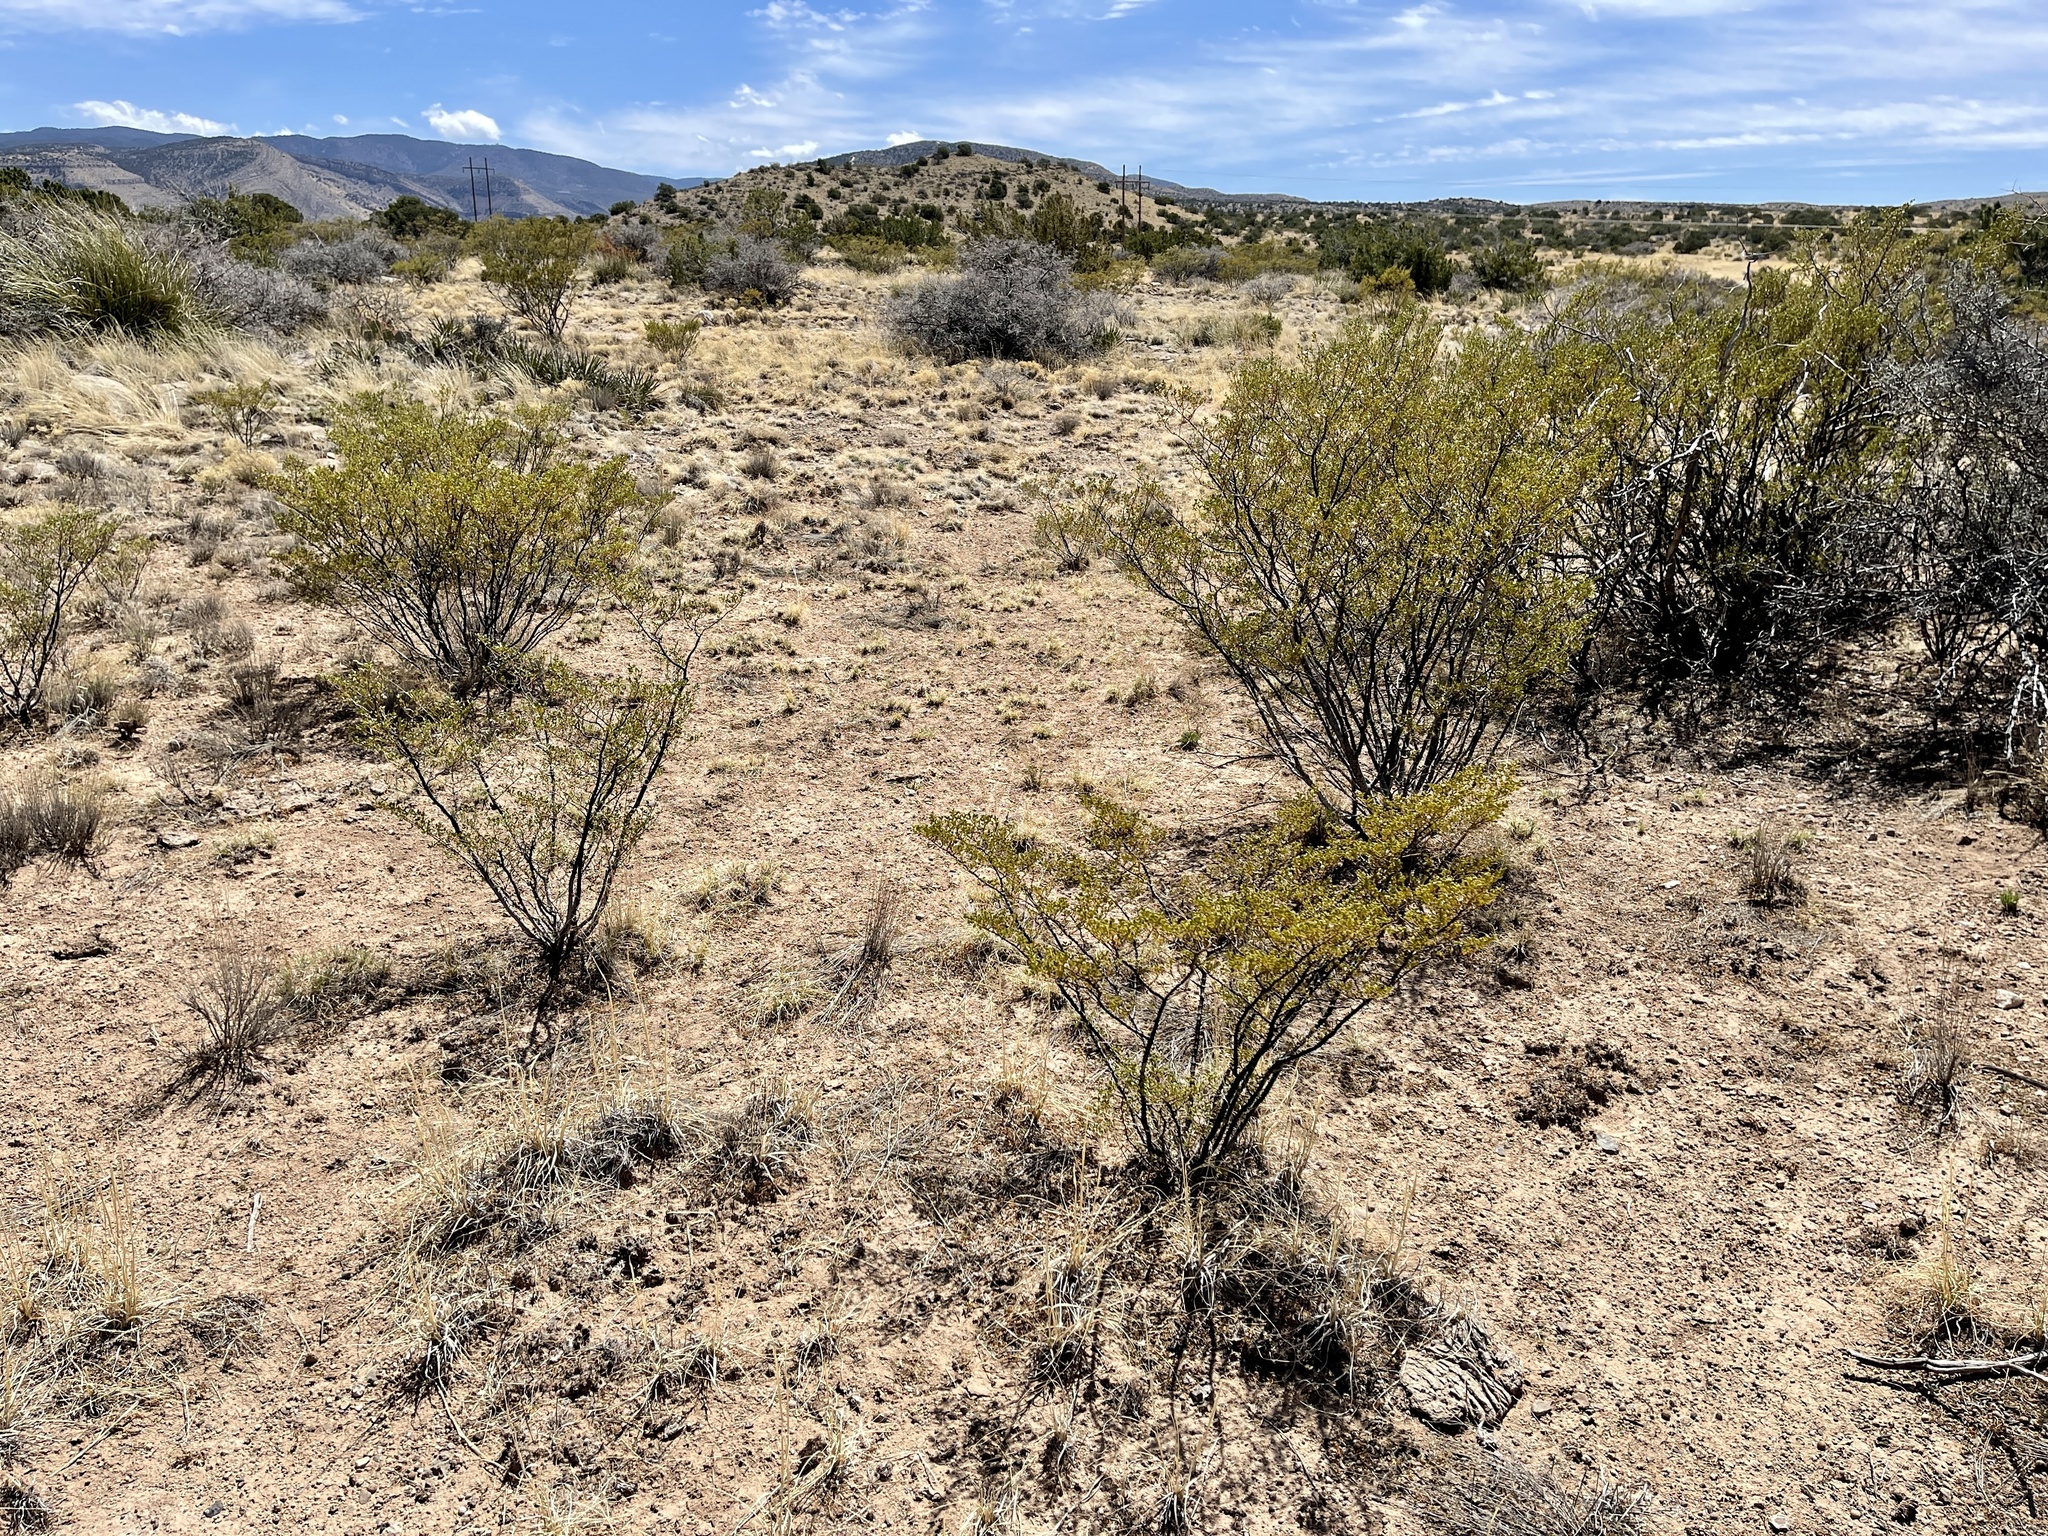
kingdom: Plantae
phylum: Tracheophyta
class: Magnoliopsida
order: Zygophyllales
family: Zygophyllaceae
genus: Larrea
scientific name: Larrea tridentata
